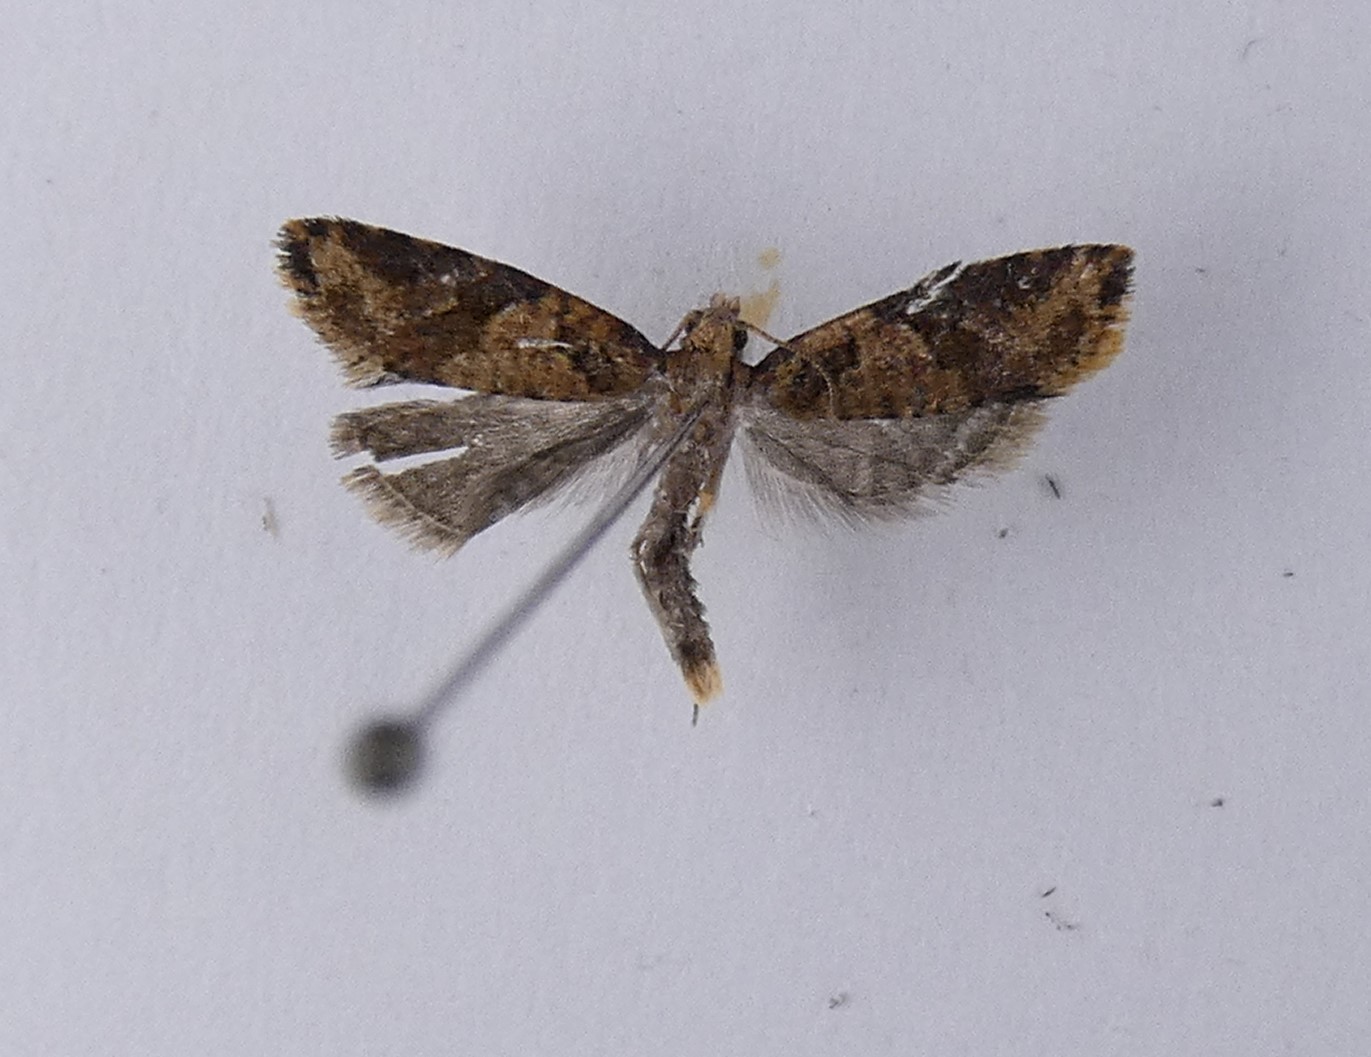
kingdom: Animalia
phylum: Arthropoda
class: Insecta
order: Lepidoptera
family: Tortricidae
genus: Capua
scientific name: Capua semiferana
